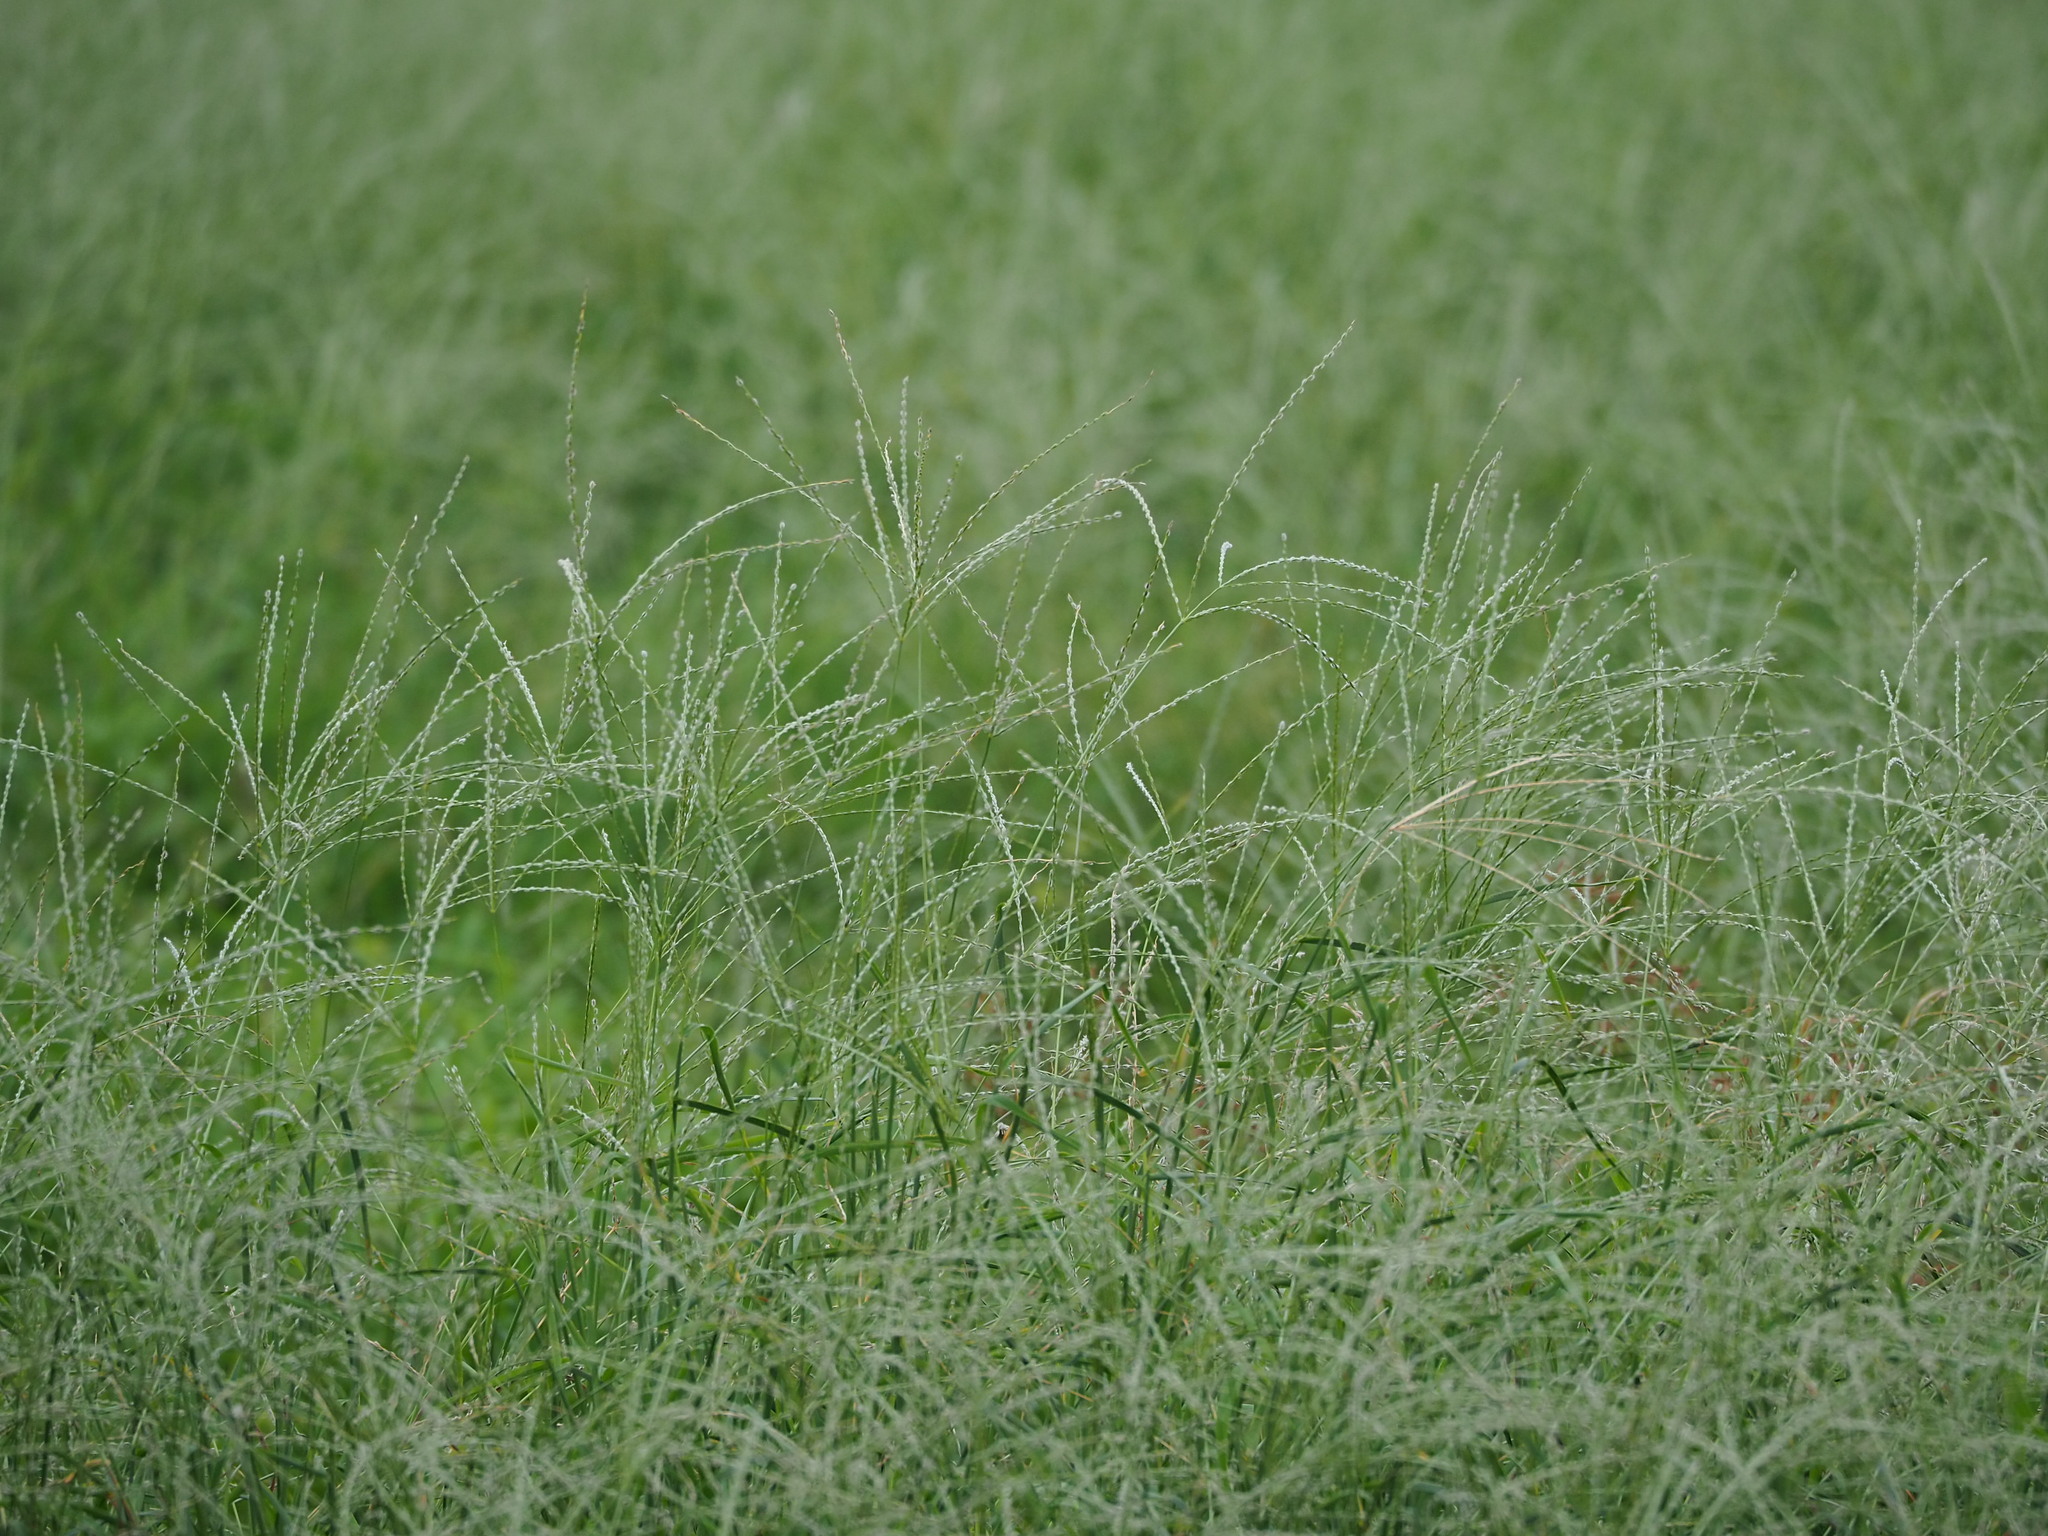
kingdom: Plantae
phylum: Tracheophyta
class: Liliopsida
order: Poales
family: Poaceae
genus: Digitaria
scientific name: Digitaria heterantha
